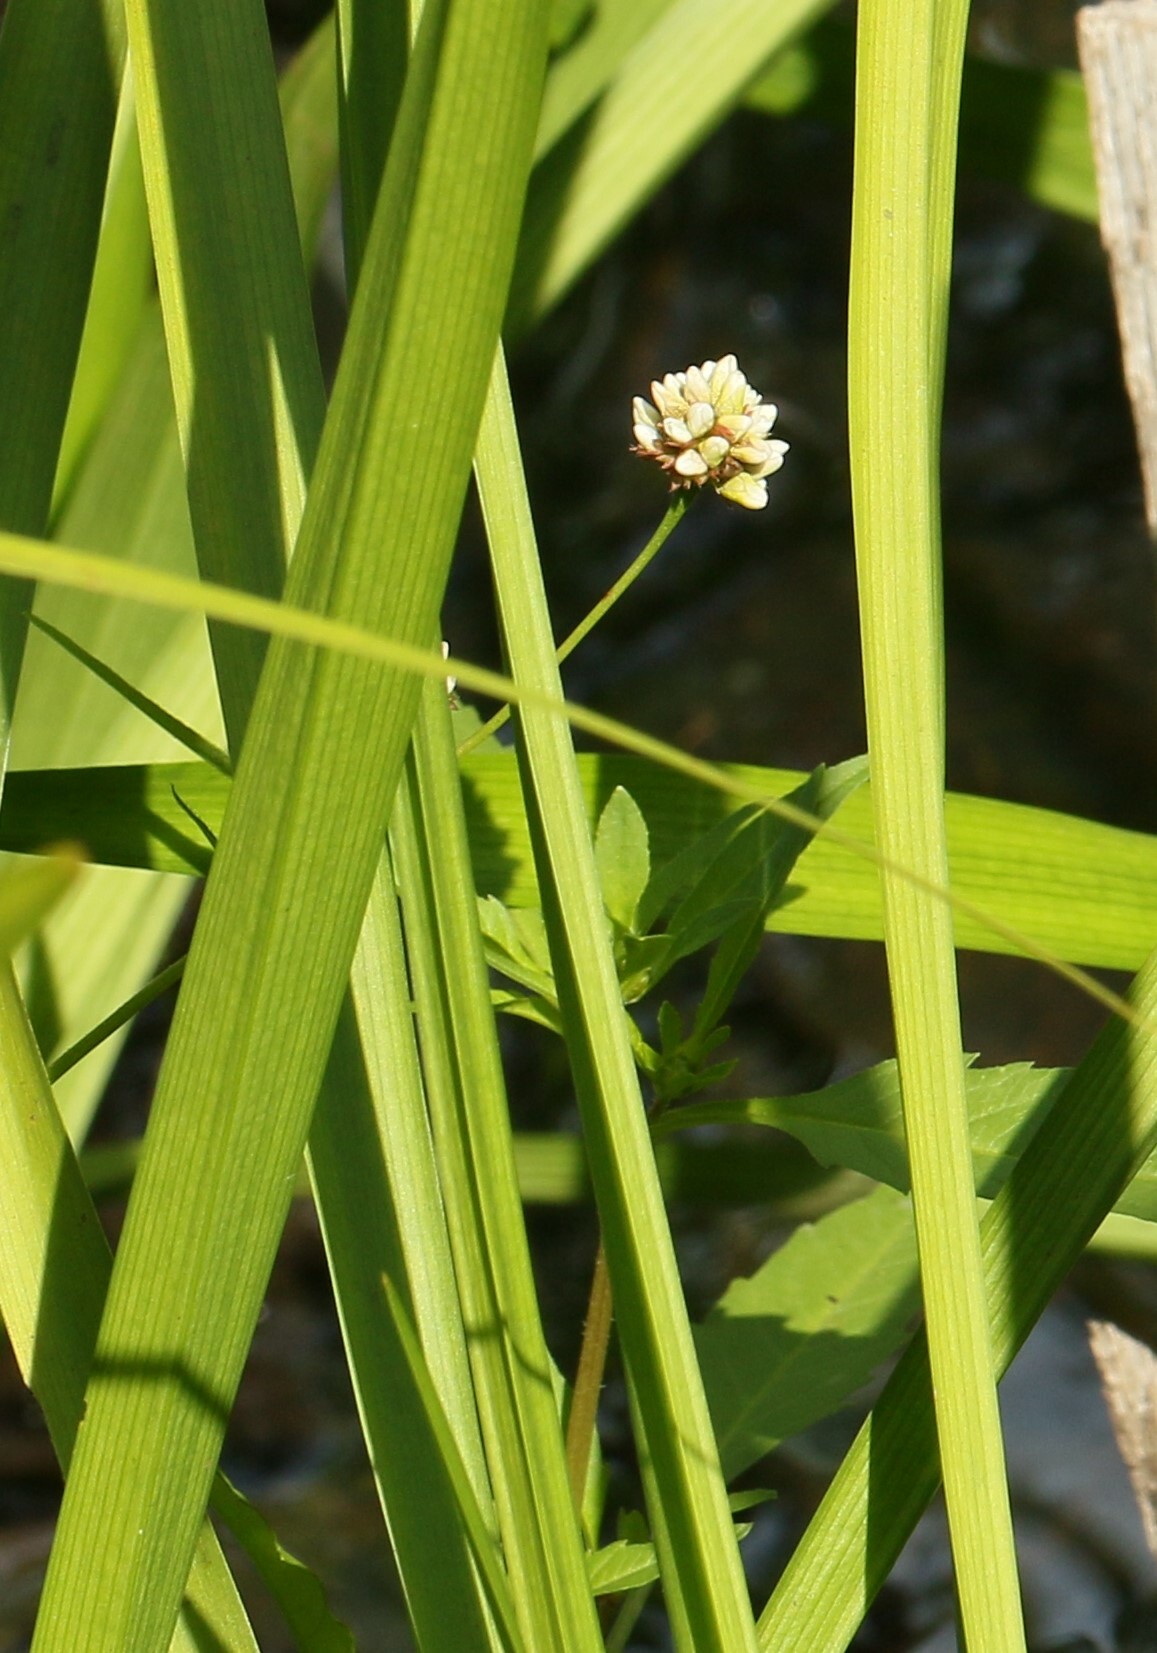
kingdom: Plantae
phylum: Tracheophyta
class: Magnoliopsida
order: Caryophyllales
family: Polygonaceae
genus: Persicaria
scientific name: Persicaria sagittata
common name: American tearthumb
